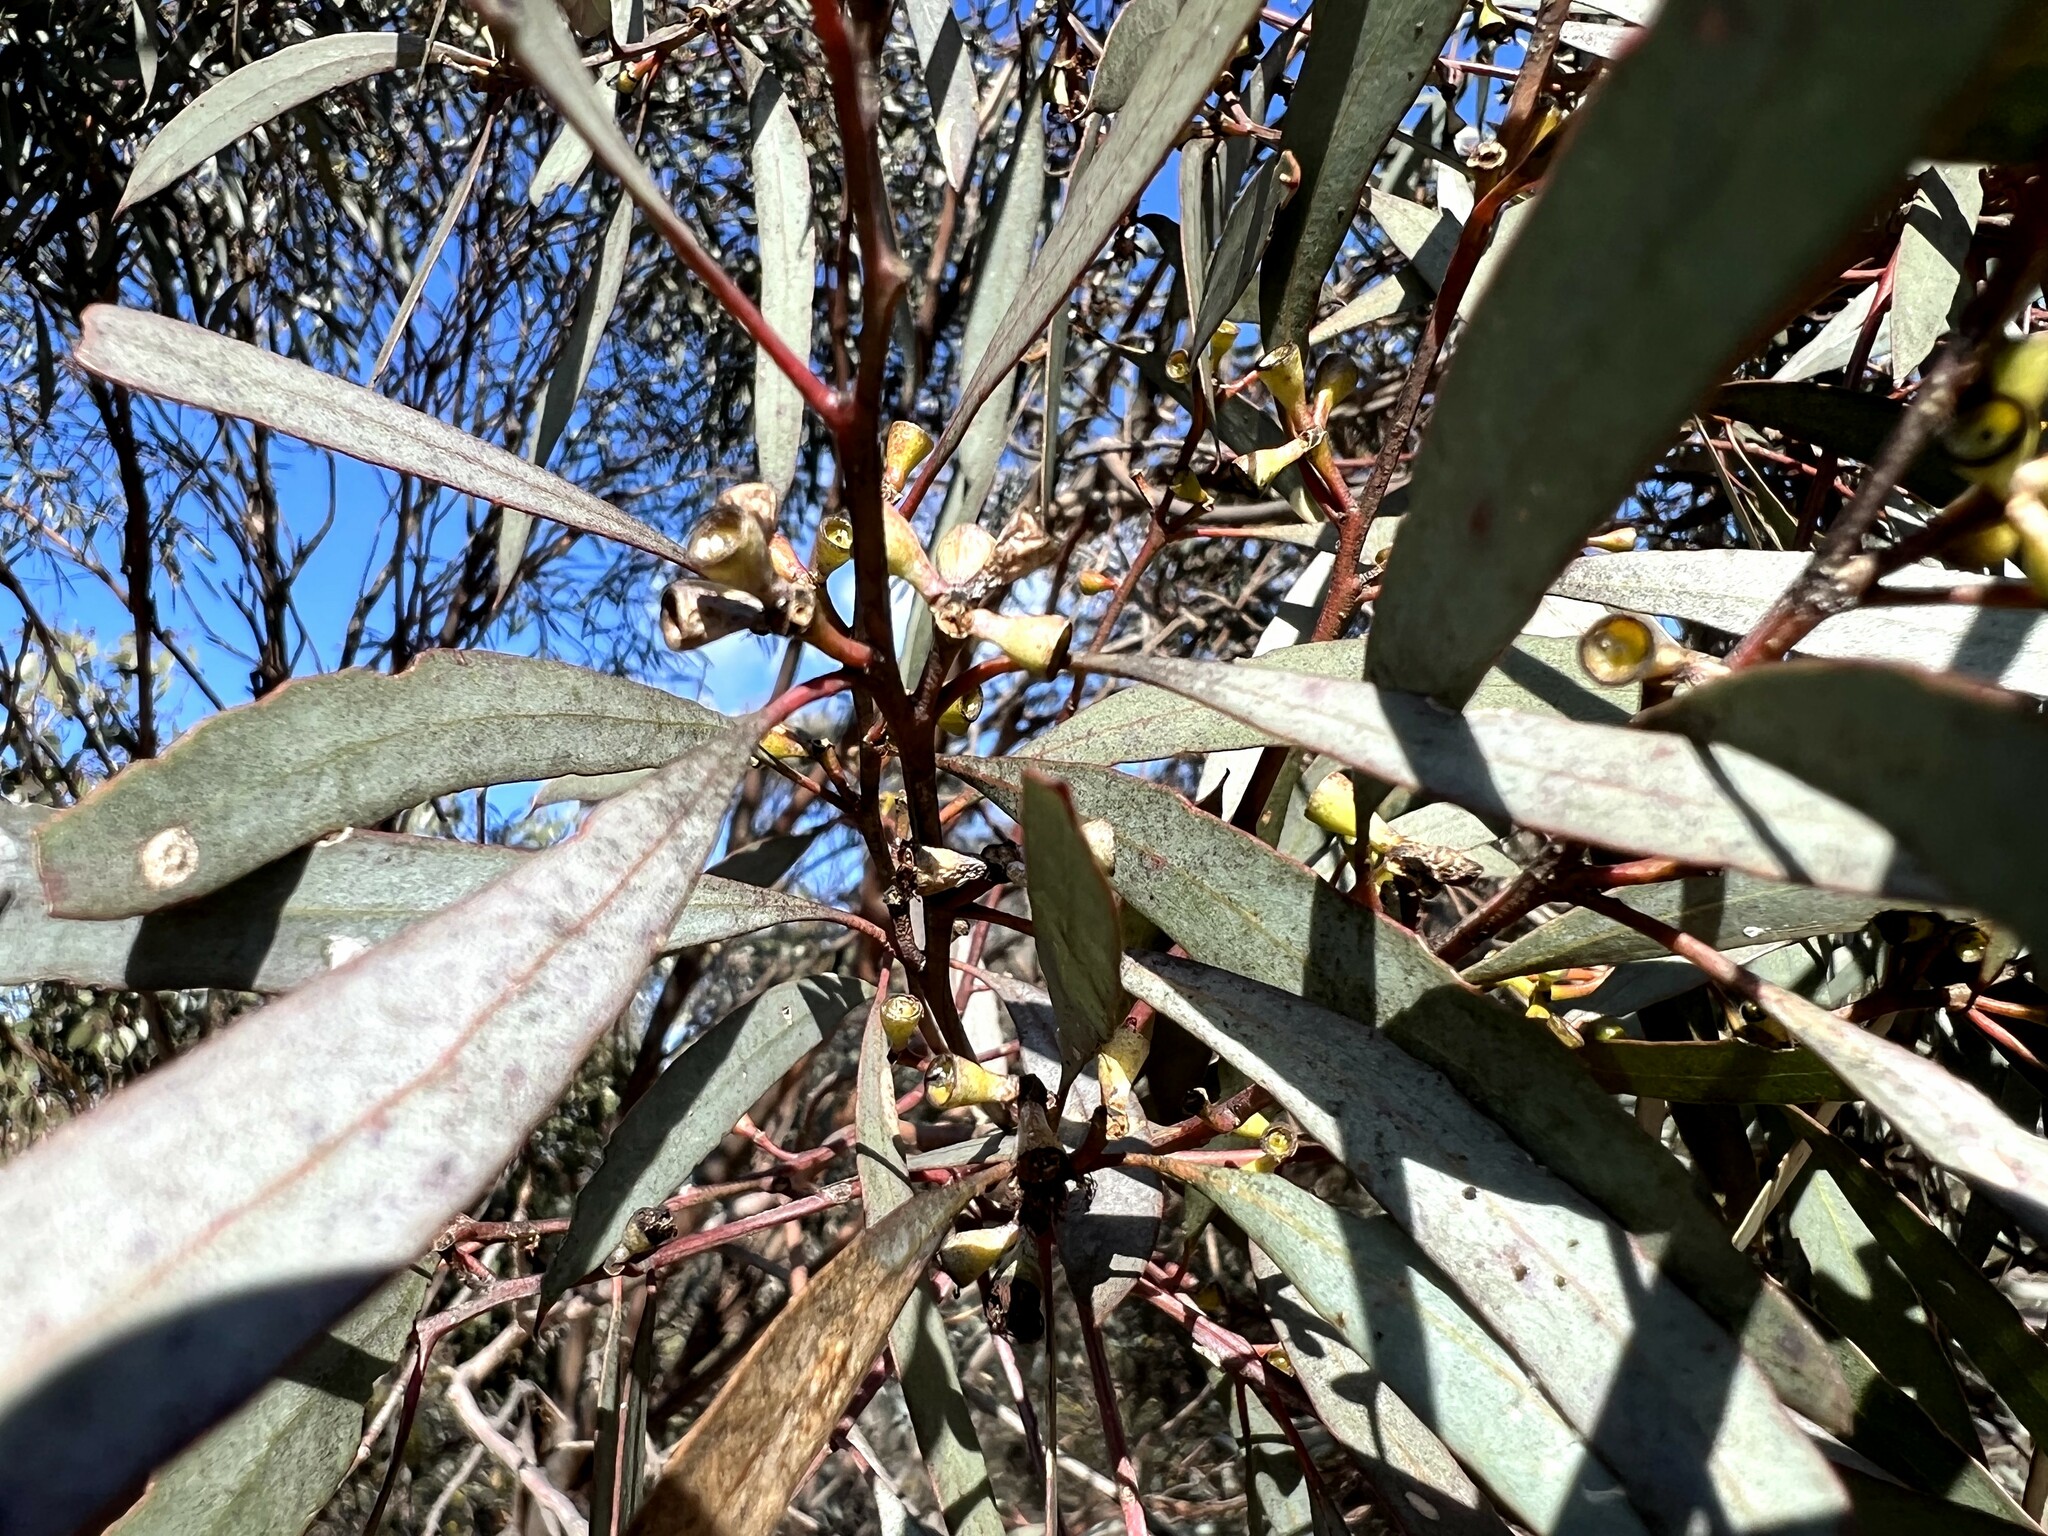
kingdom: Plantae
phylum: Tracheophyta
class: Magnoliopsida
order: Myrtales
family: Myrtaceae
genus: Eucalyptus
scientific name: Eucalyptus polybractea
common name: Blue mallee
